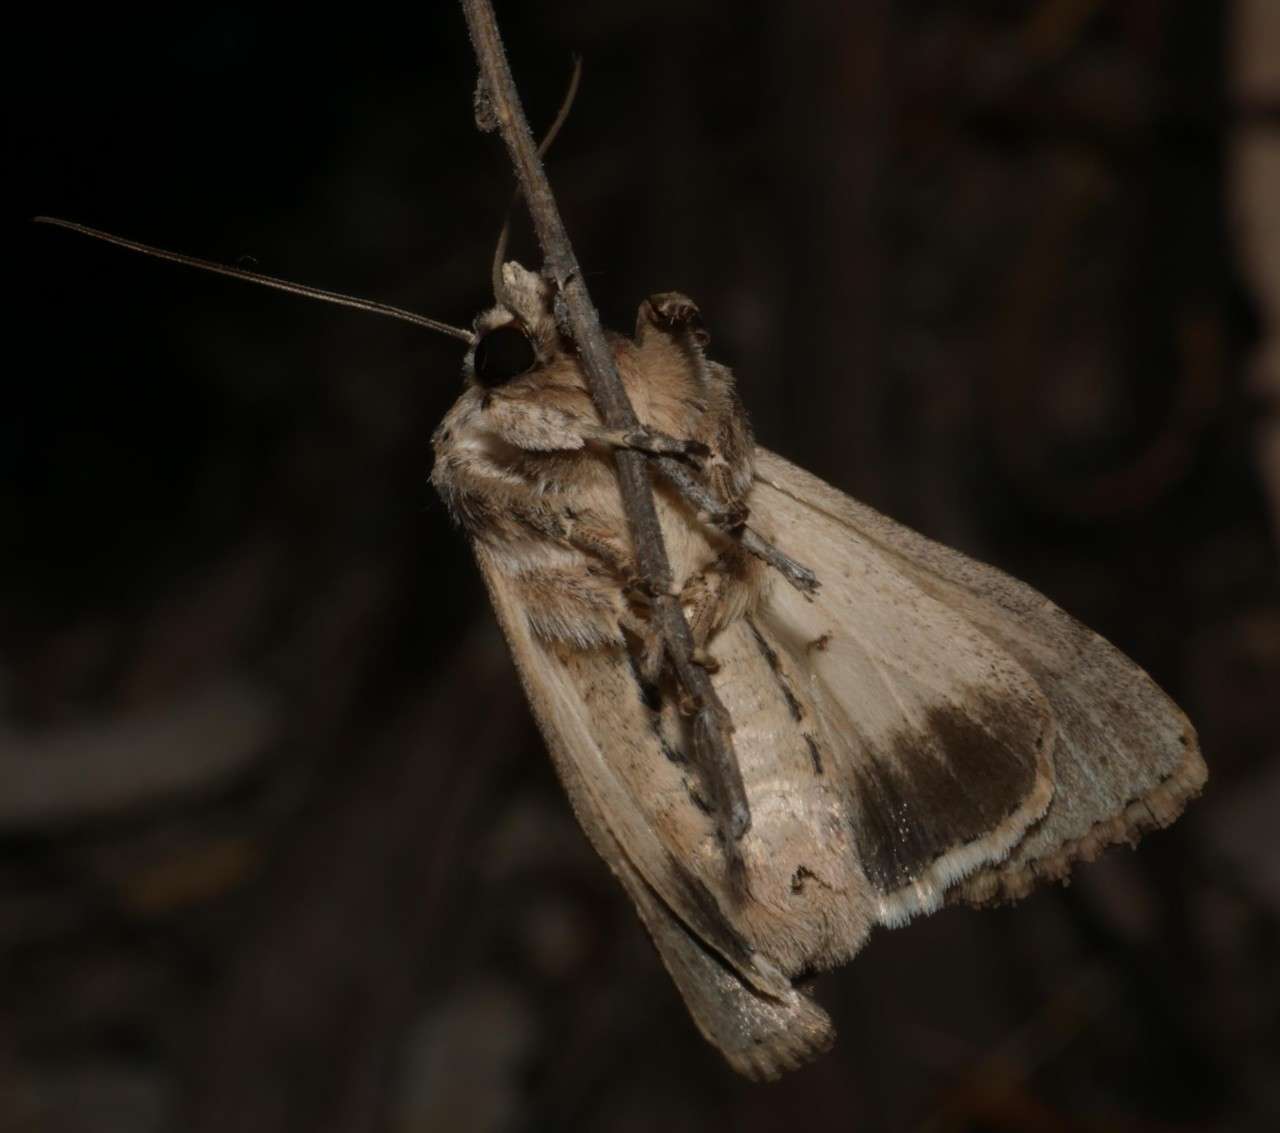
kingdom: Animalia
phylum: Arthropoda
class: Insecta
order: Lepidoptera
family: Noctuidae
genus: Persectania
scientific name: Persectania dyscrita
